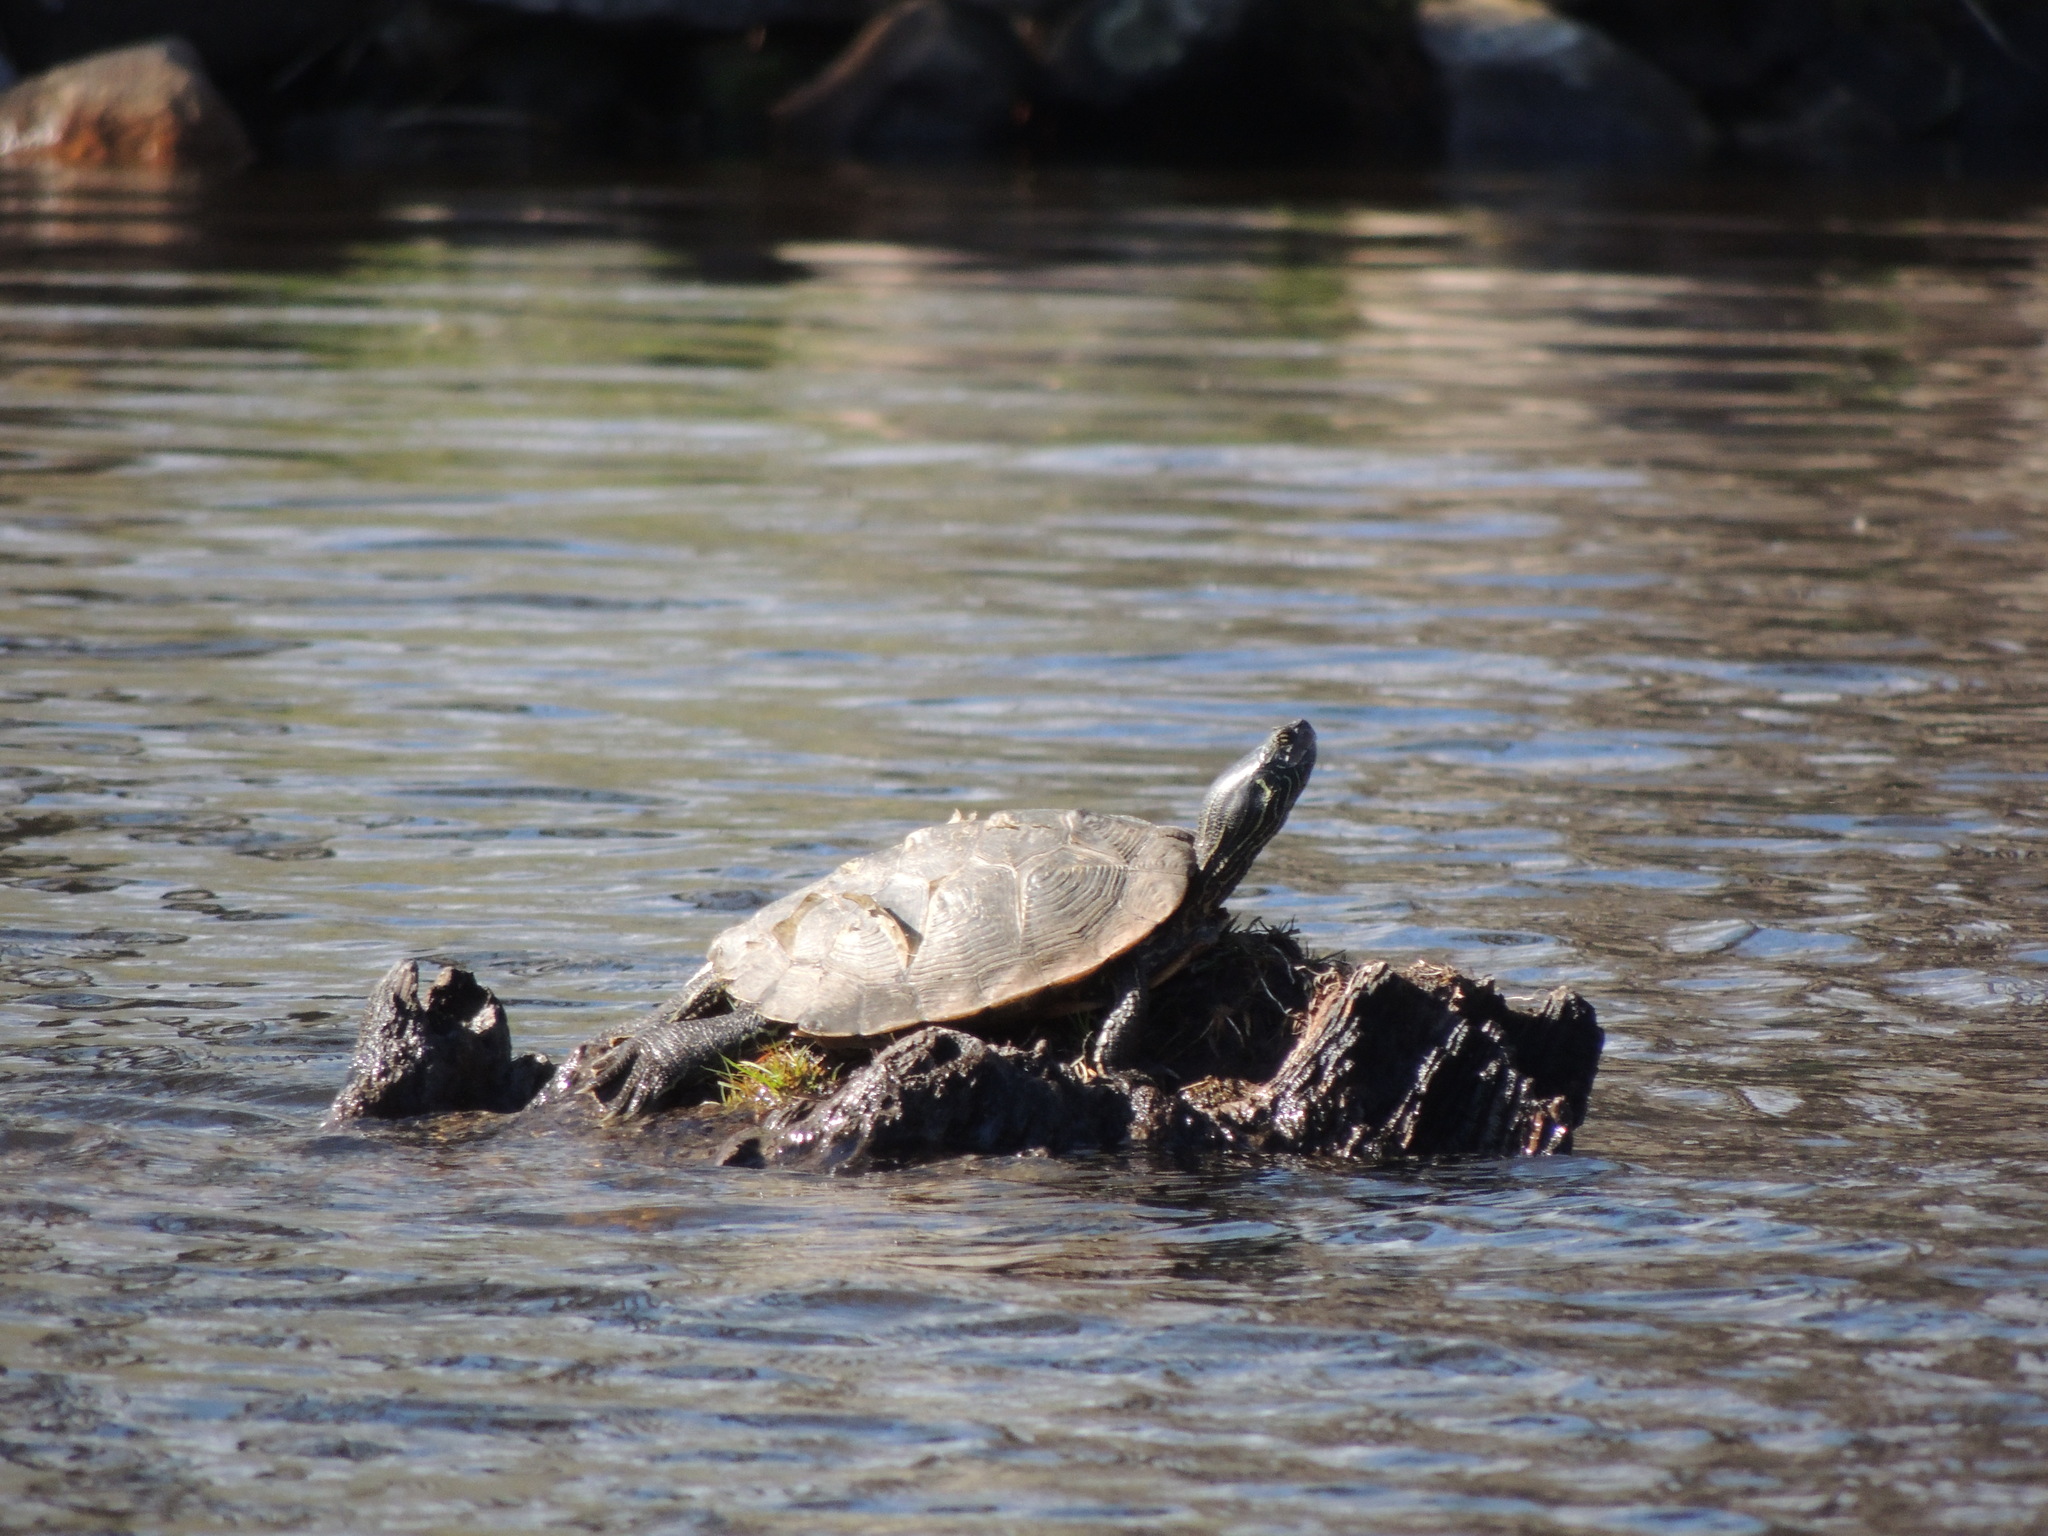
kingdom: Animalia
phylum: Chordata
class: Testudines
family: Emydidae
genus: Graptemys
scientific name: Graptemys geographica
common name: Common map turtle
